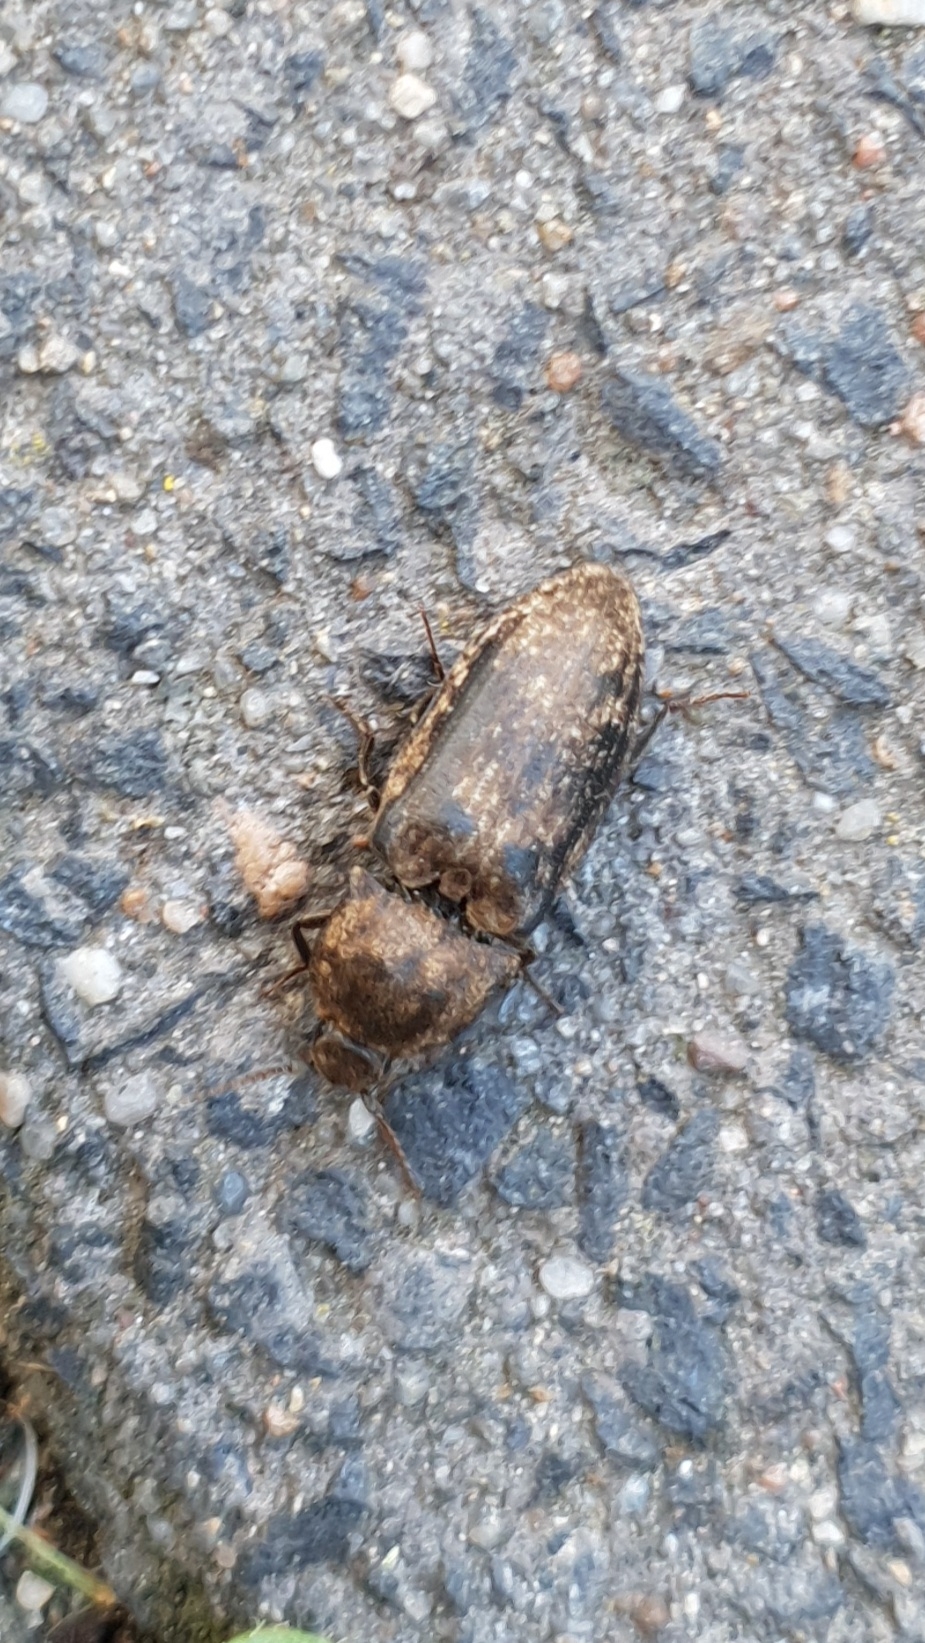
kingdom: Animalia
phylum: Arthropoda
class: Insecta
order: Coleoptera
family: Elateridae
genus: Agrypnus
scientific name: Agrypnus murinus
